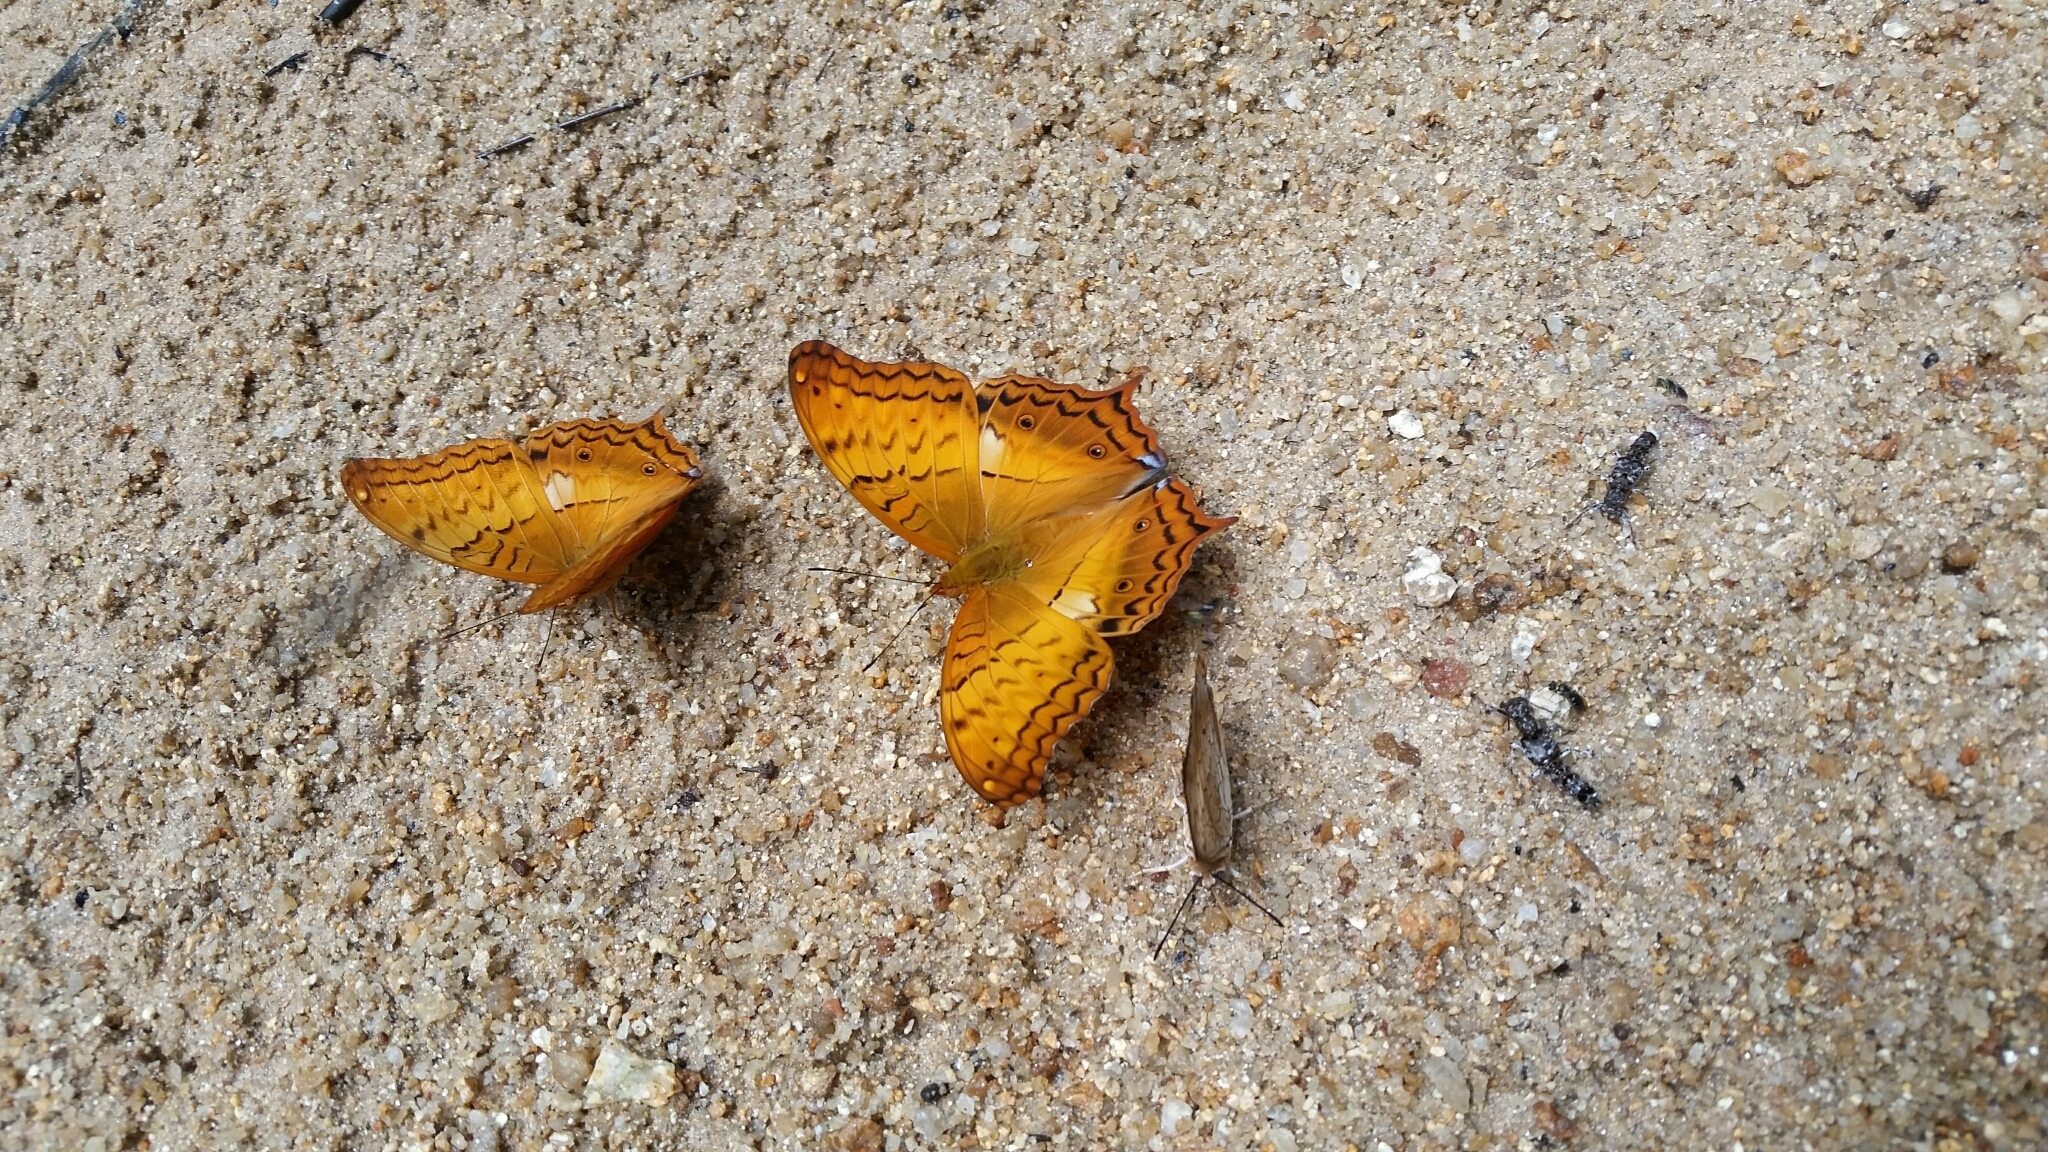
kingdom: Animalia
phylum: Arthropoda
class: Insecta
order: Lepidoptera
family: Nymphalidae
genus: Vindula
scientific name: Vindula erota
